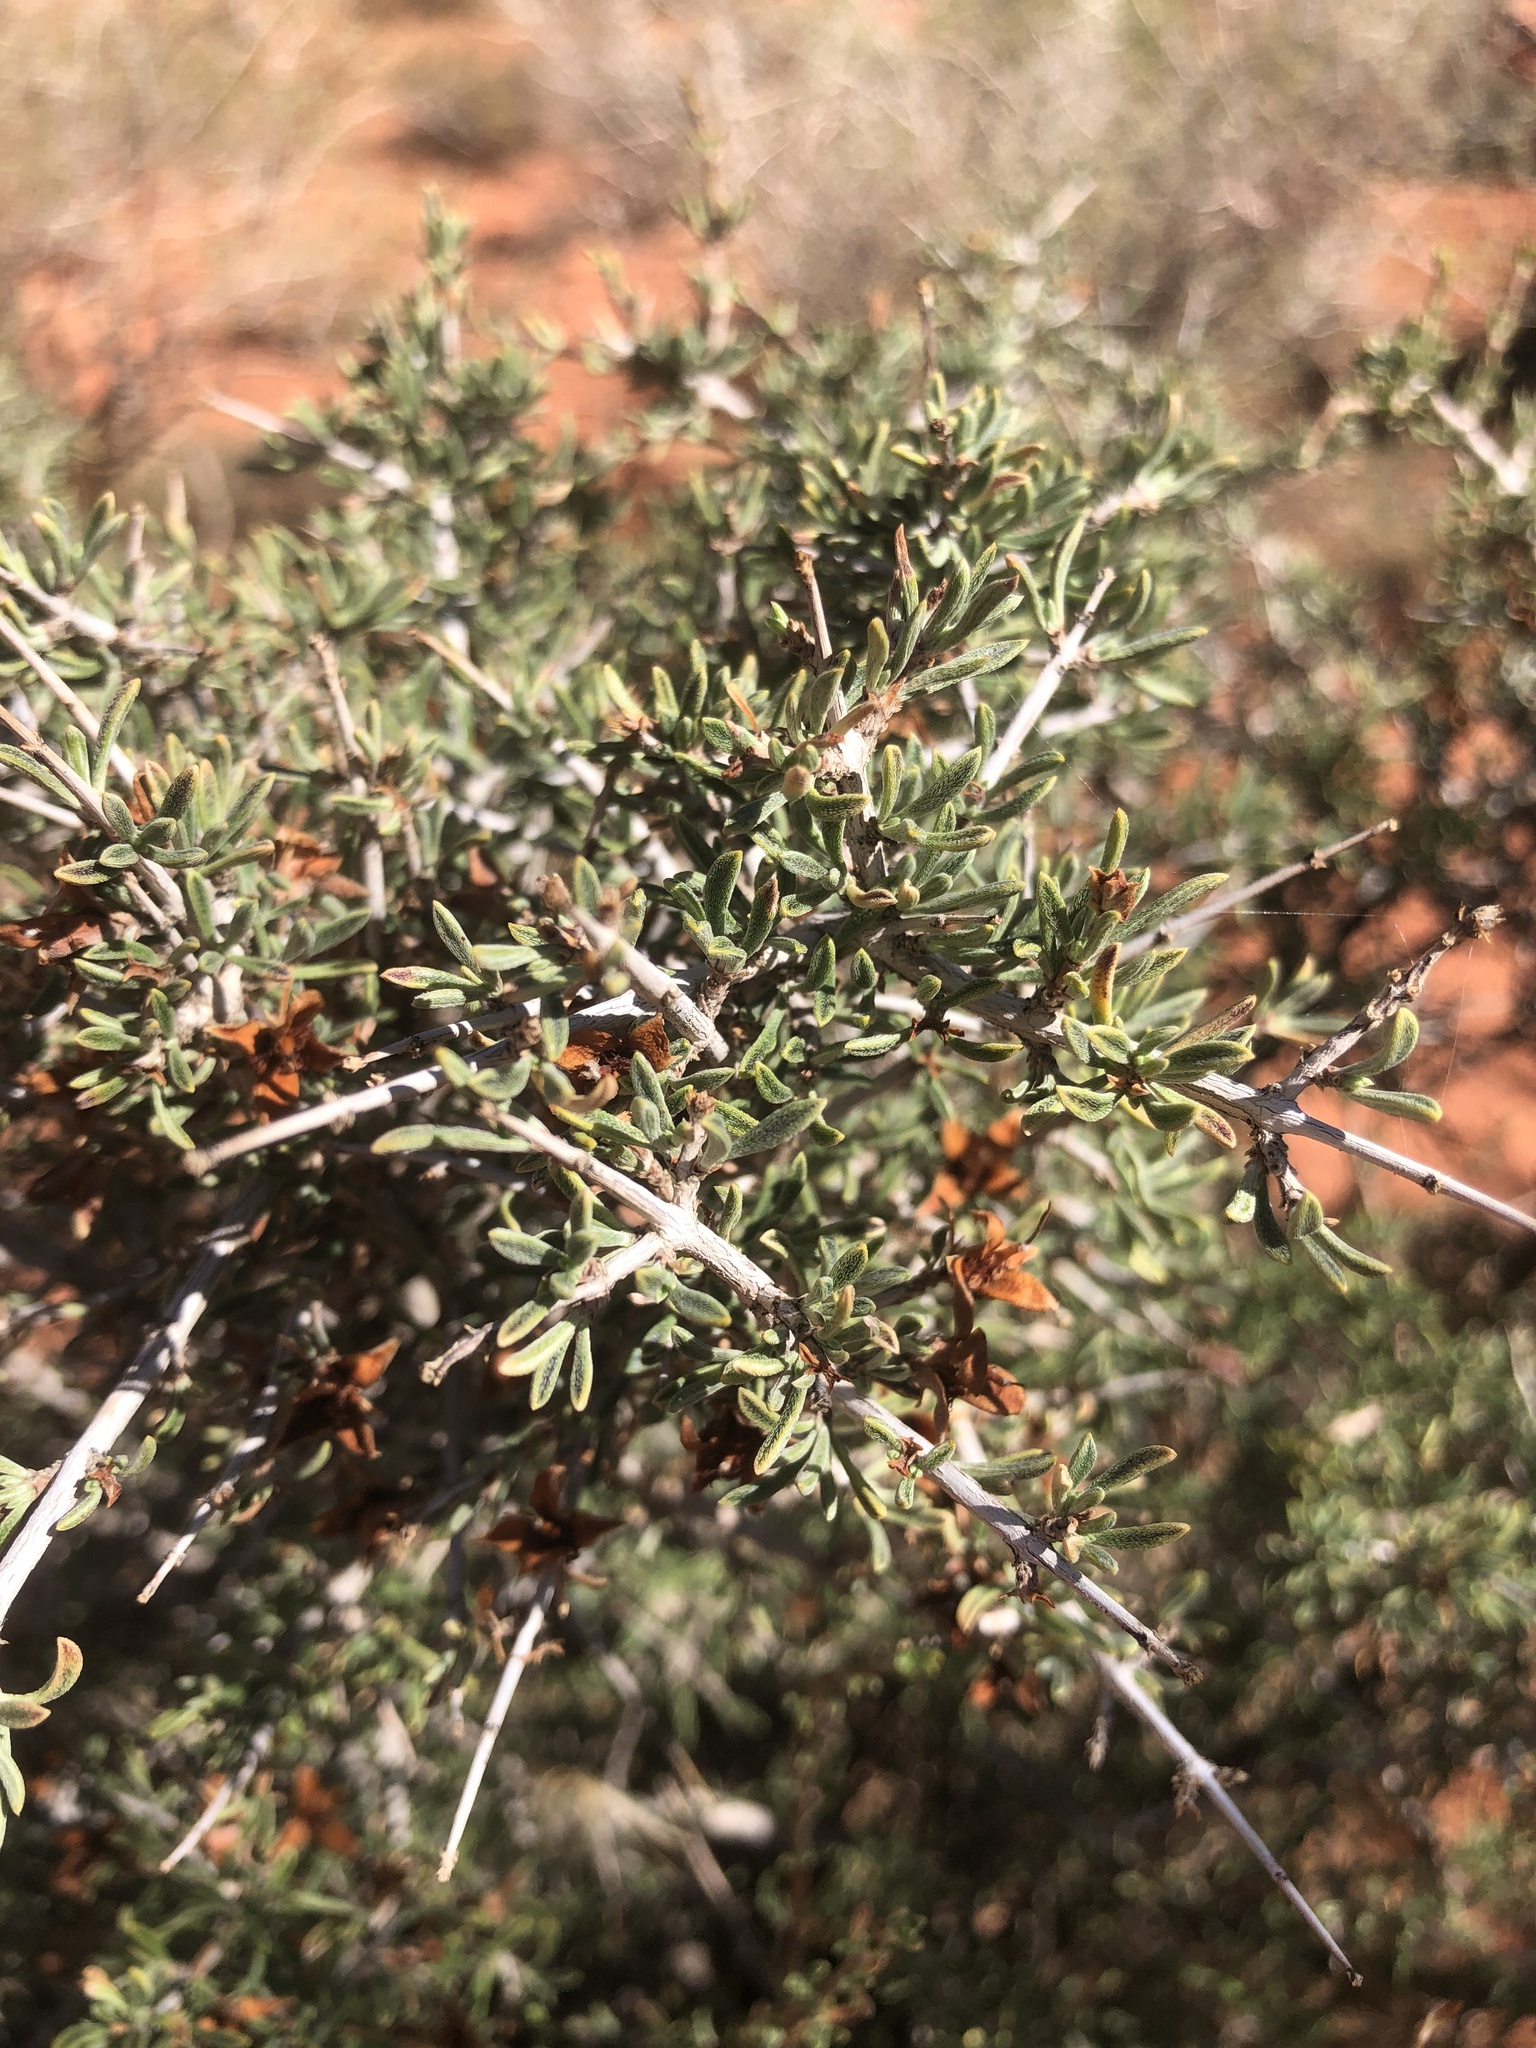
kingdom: Plantae
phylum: Tracheophyta
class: Magnoliopsida
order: Rosales
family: Rosaceae
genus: Coleogyne
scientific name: Coleogyne ramosissima
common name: Blackbrush
